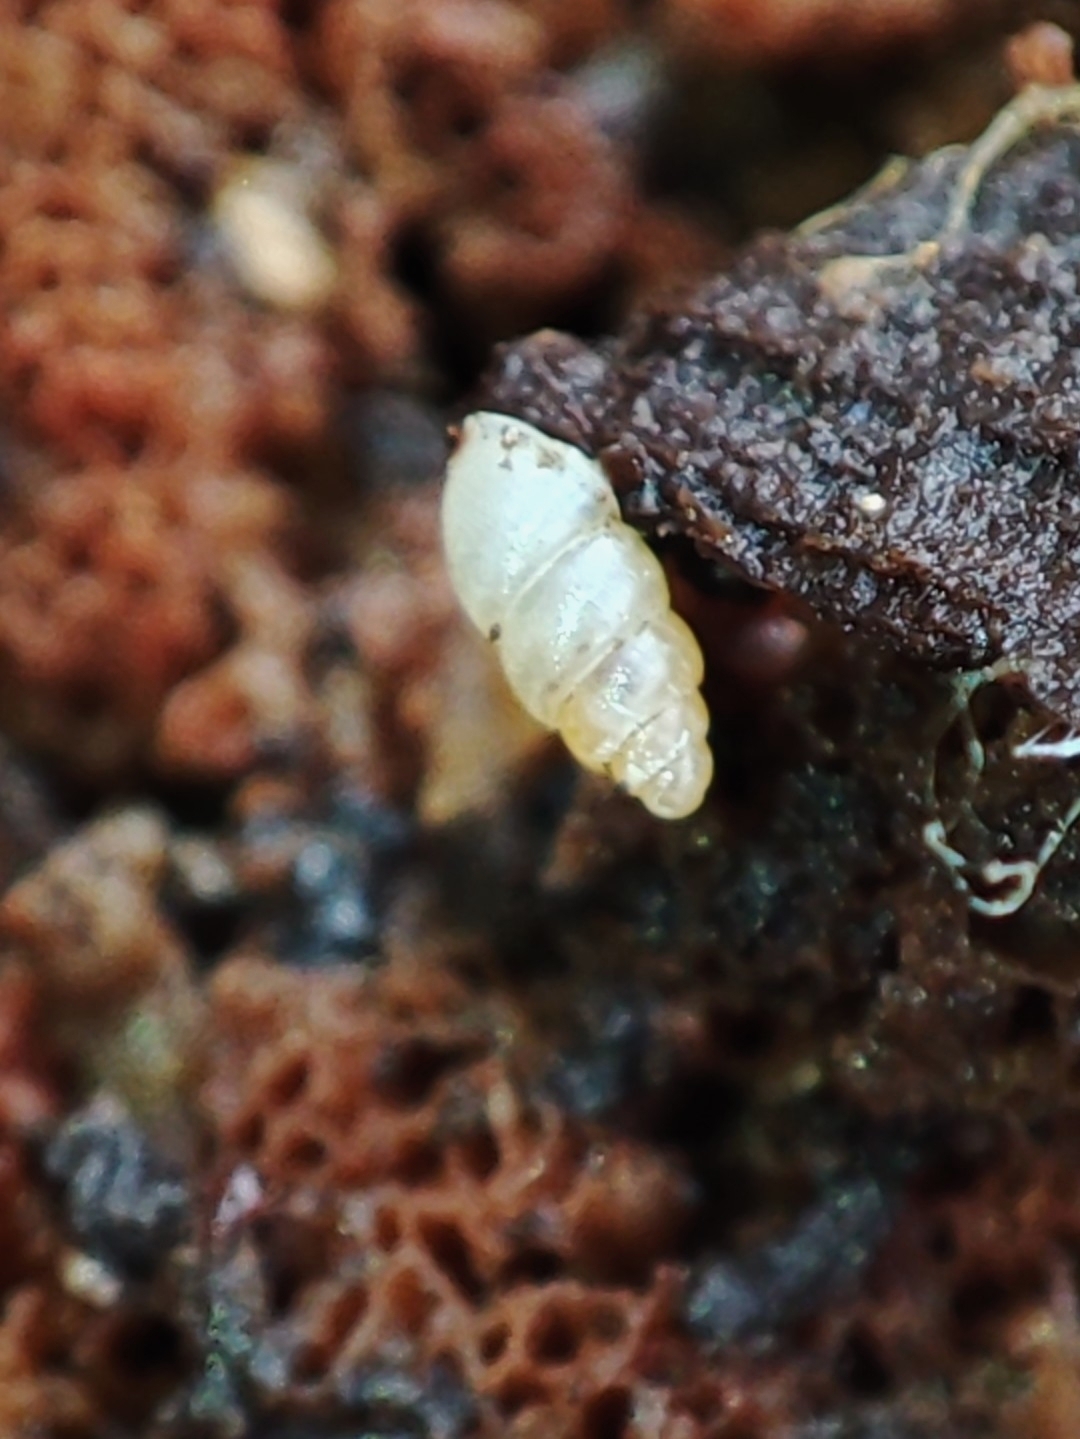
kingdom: Animalia
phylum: Mollusca
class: Gastropoda
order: Ellobiida
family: Ellobiidae
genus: Carychium
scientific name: Carychium tridentatum
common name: Long-toothed herald snail
